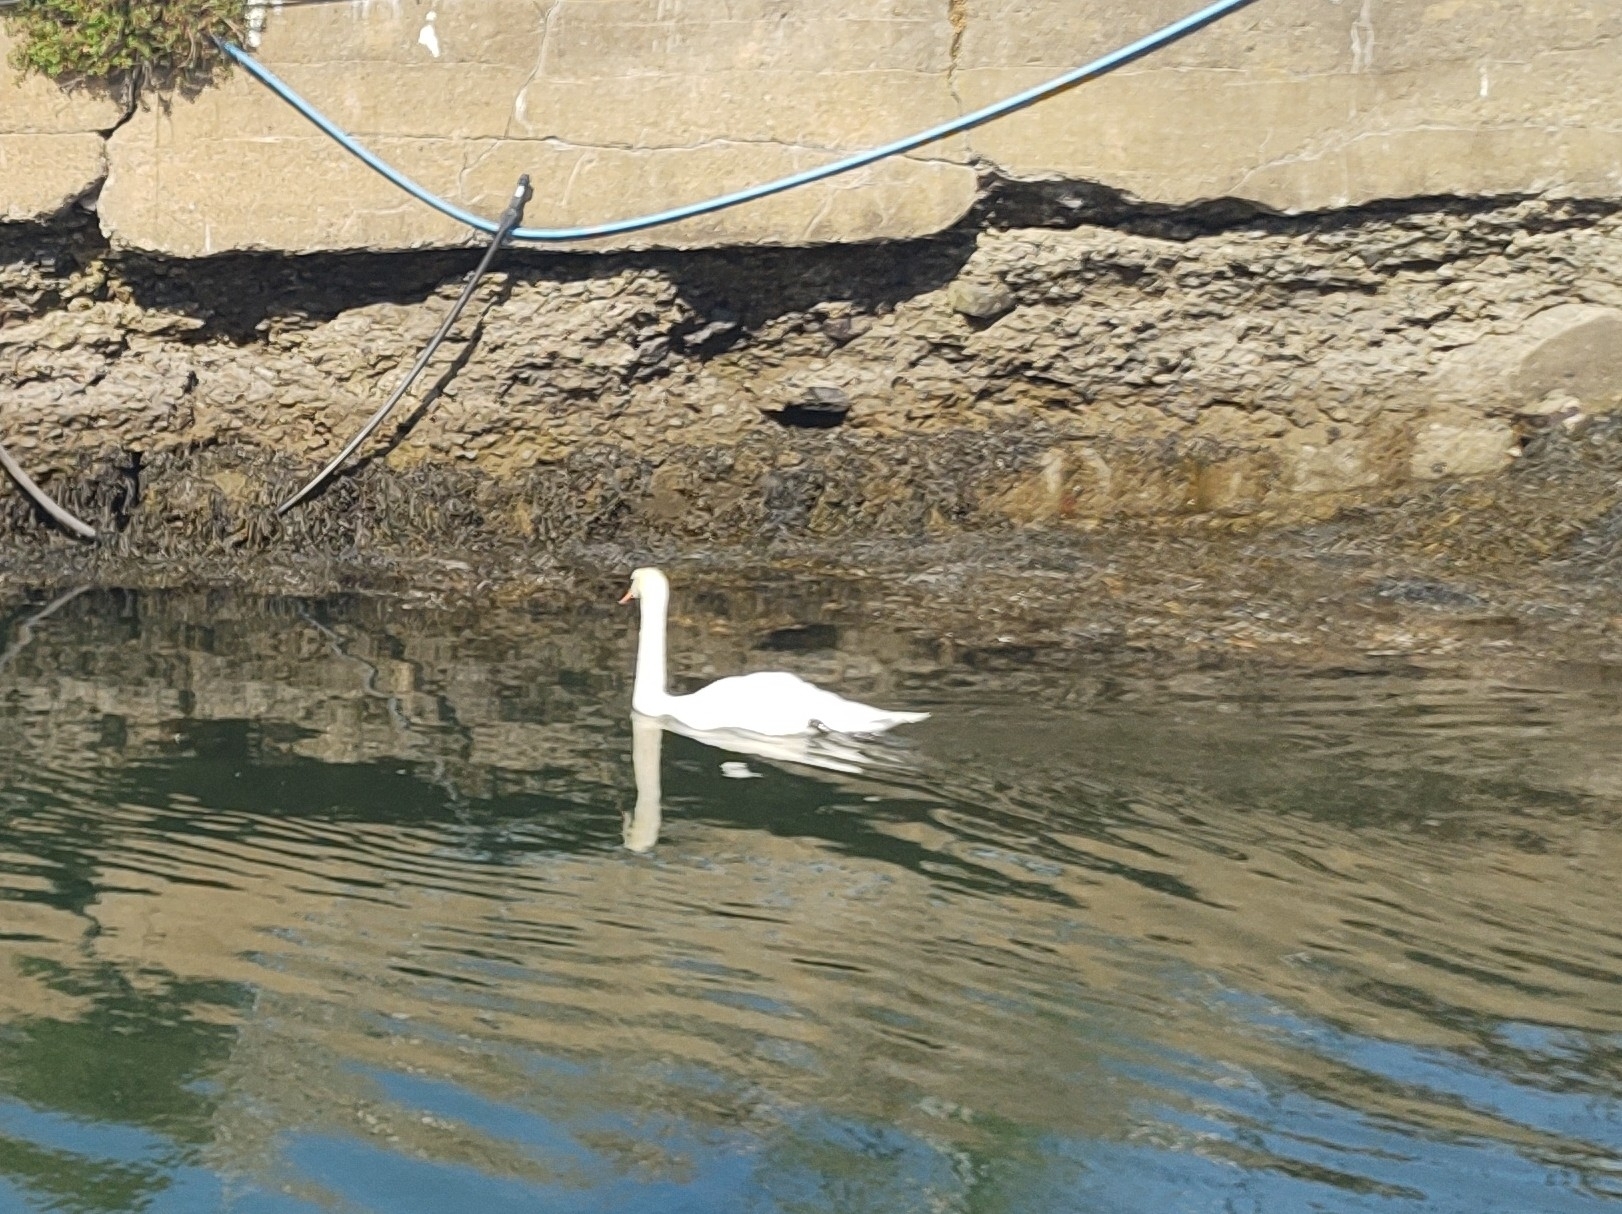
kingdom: Animalia
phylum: Chordata
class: Aves
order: Anseriformes
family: Anatidae
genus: Cygnus
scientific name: Cygnus olor
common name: Mute swan
